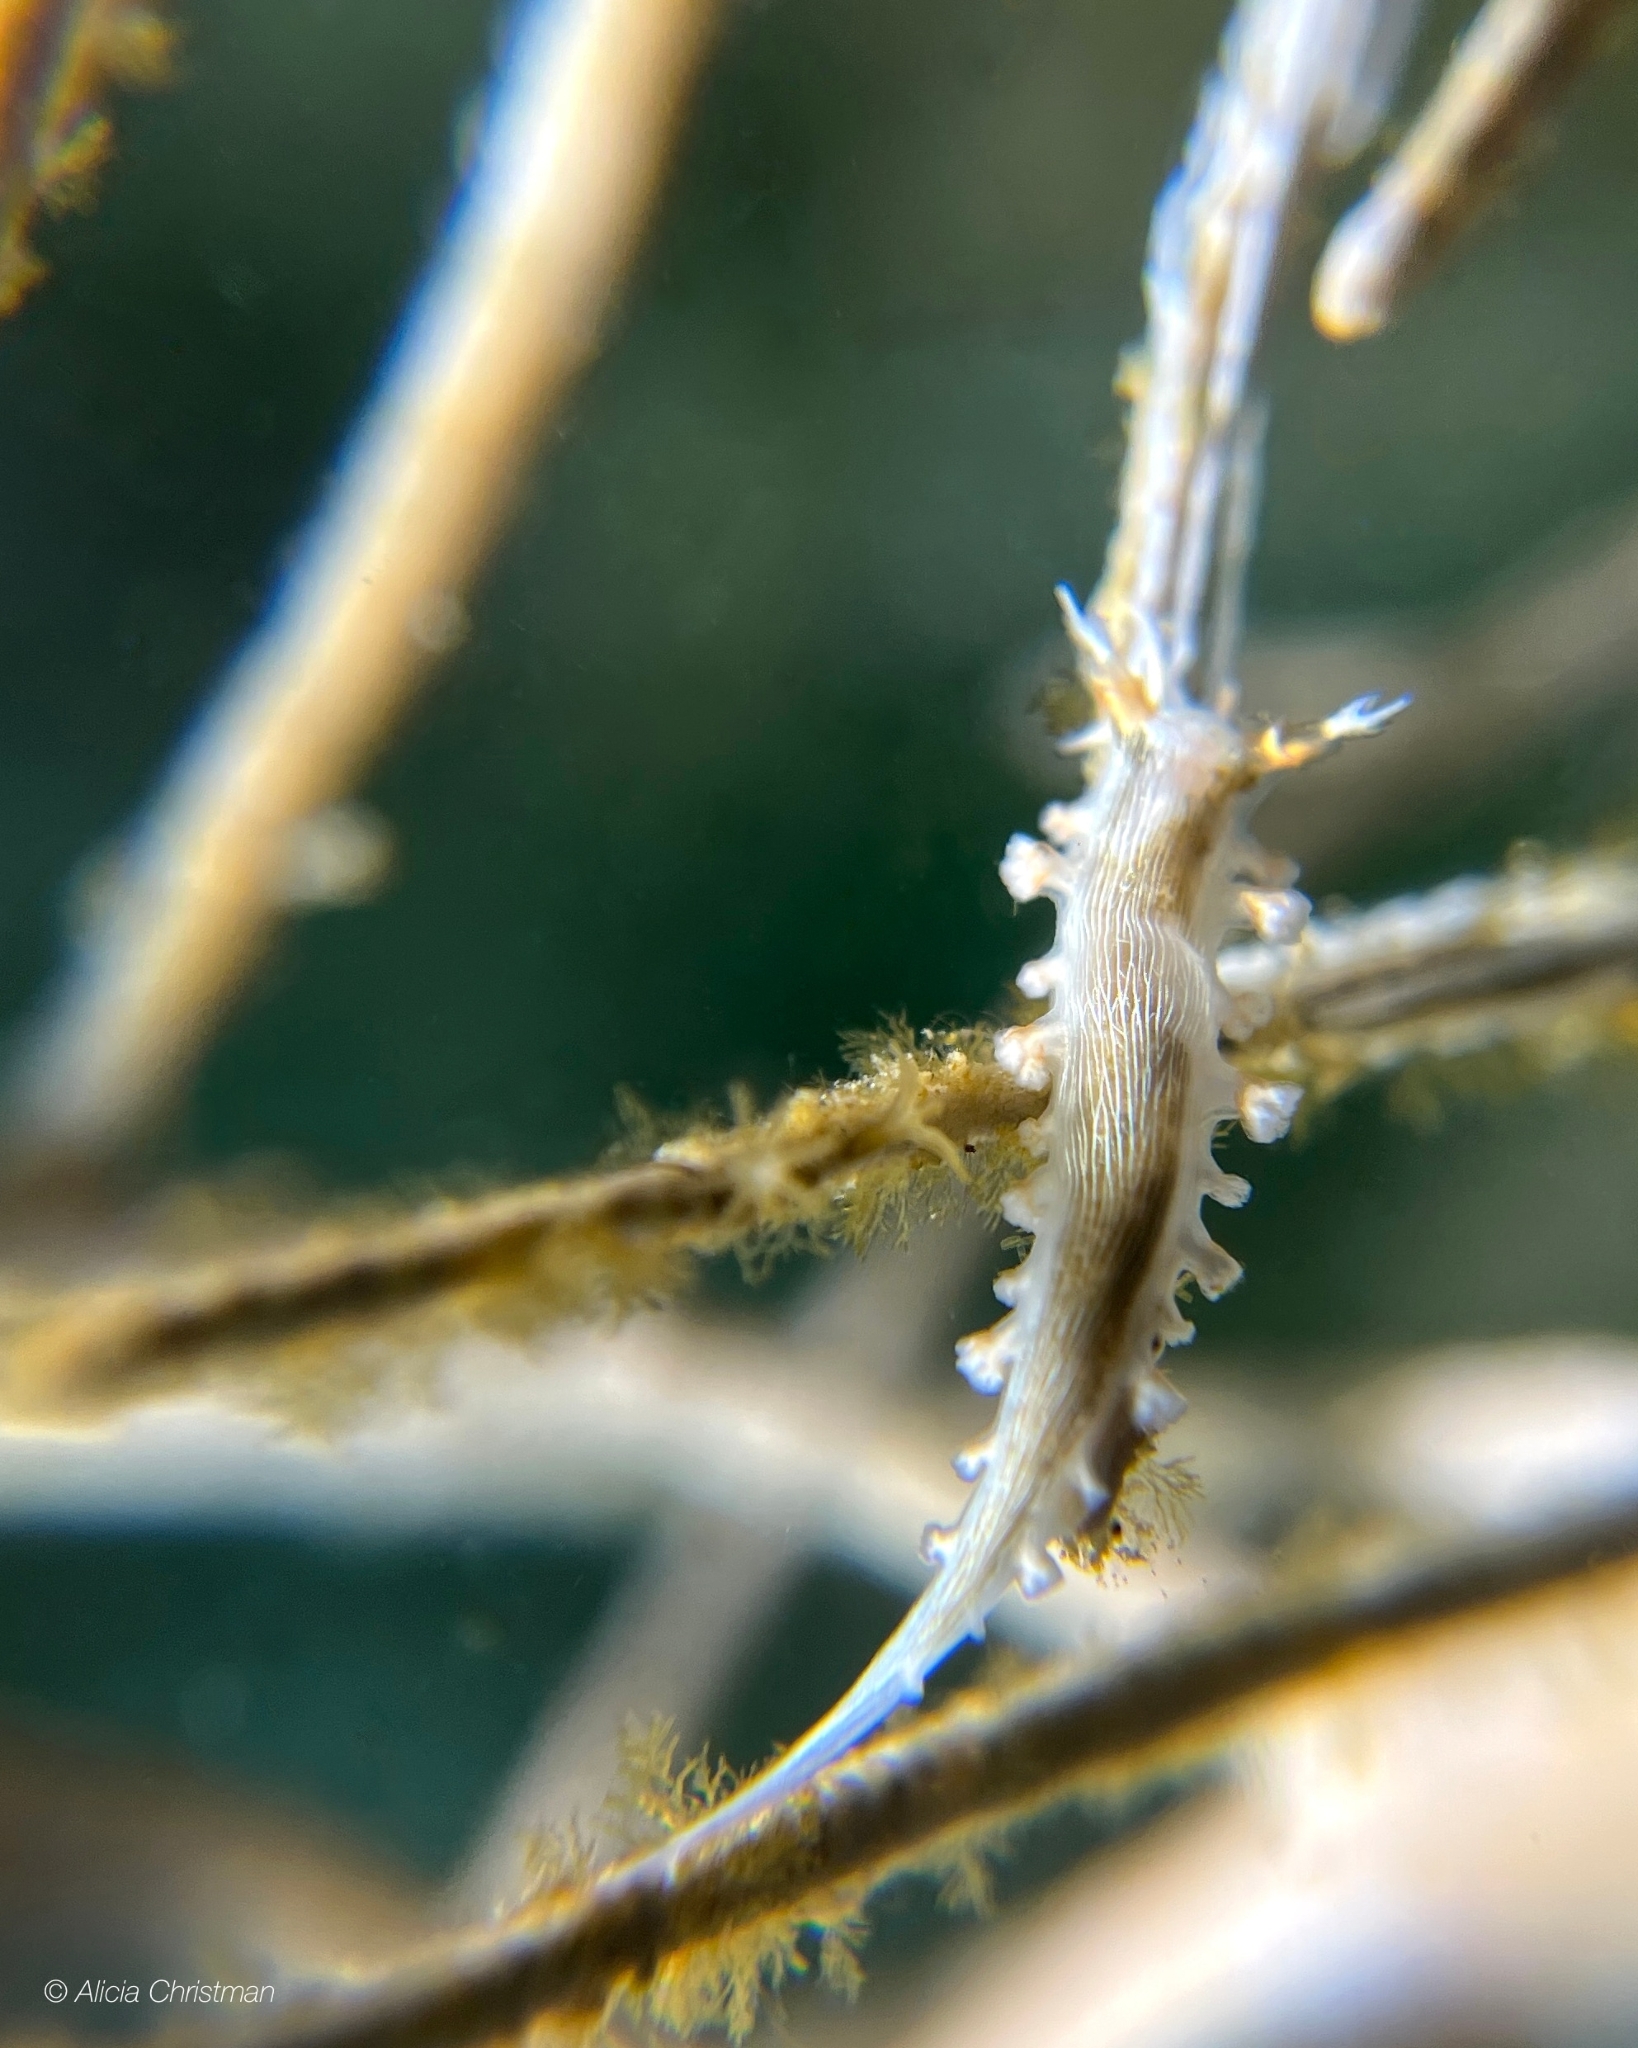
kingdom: Animalia
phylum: Mollusca
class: Gastropoda
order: Nudibranchia
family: Tritoniidae
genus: Tritonicula
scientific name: Tritonicula hamnerorum
